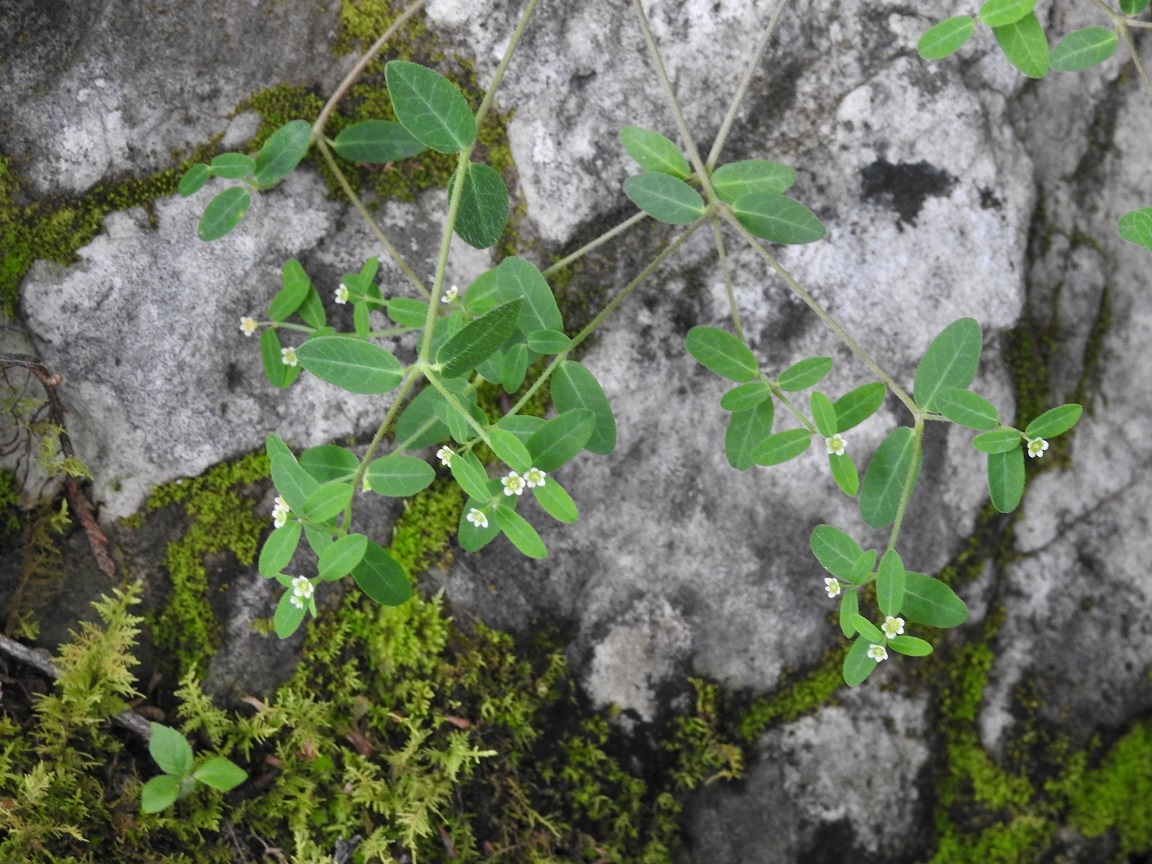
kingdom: Plantae
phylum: Tracheophyta
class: Magnoliopsida
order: Malpighiales
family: Euphorbiaceae
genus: Euphorbia
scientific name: Euphorbia macropus
